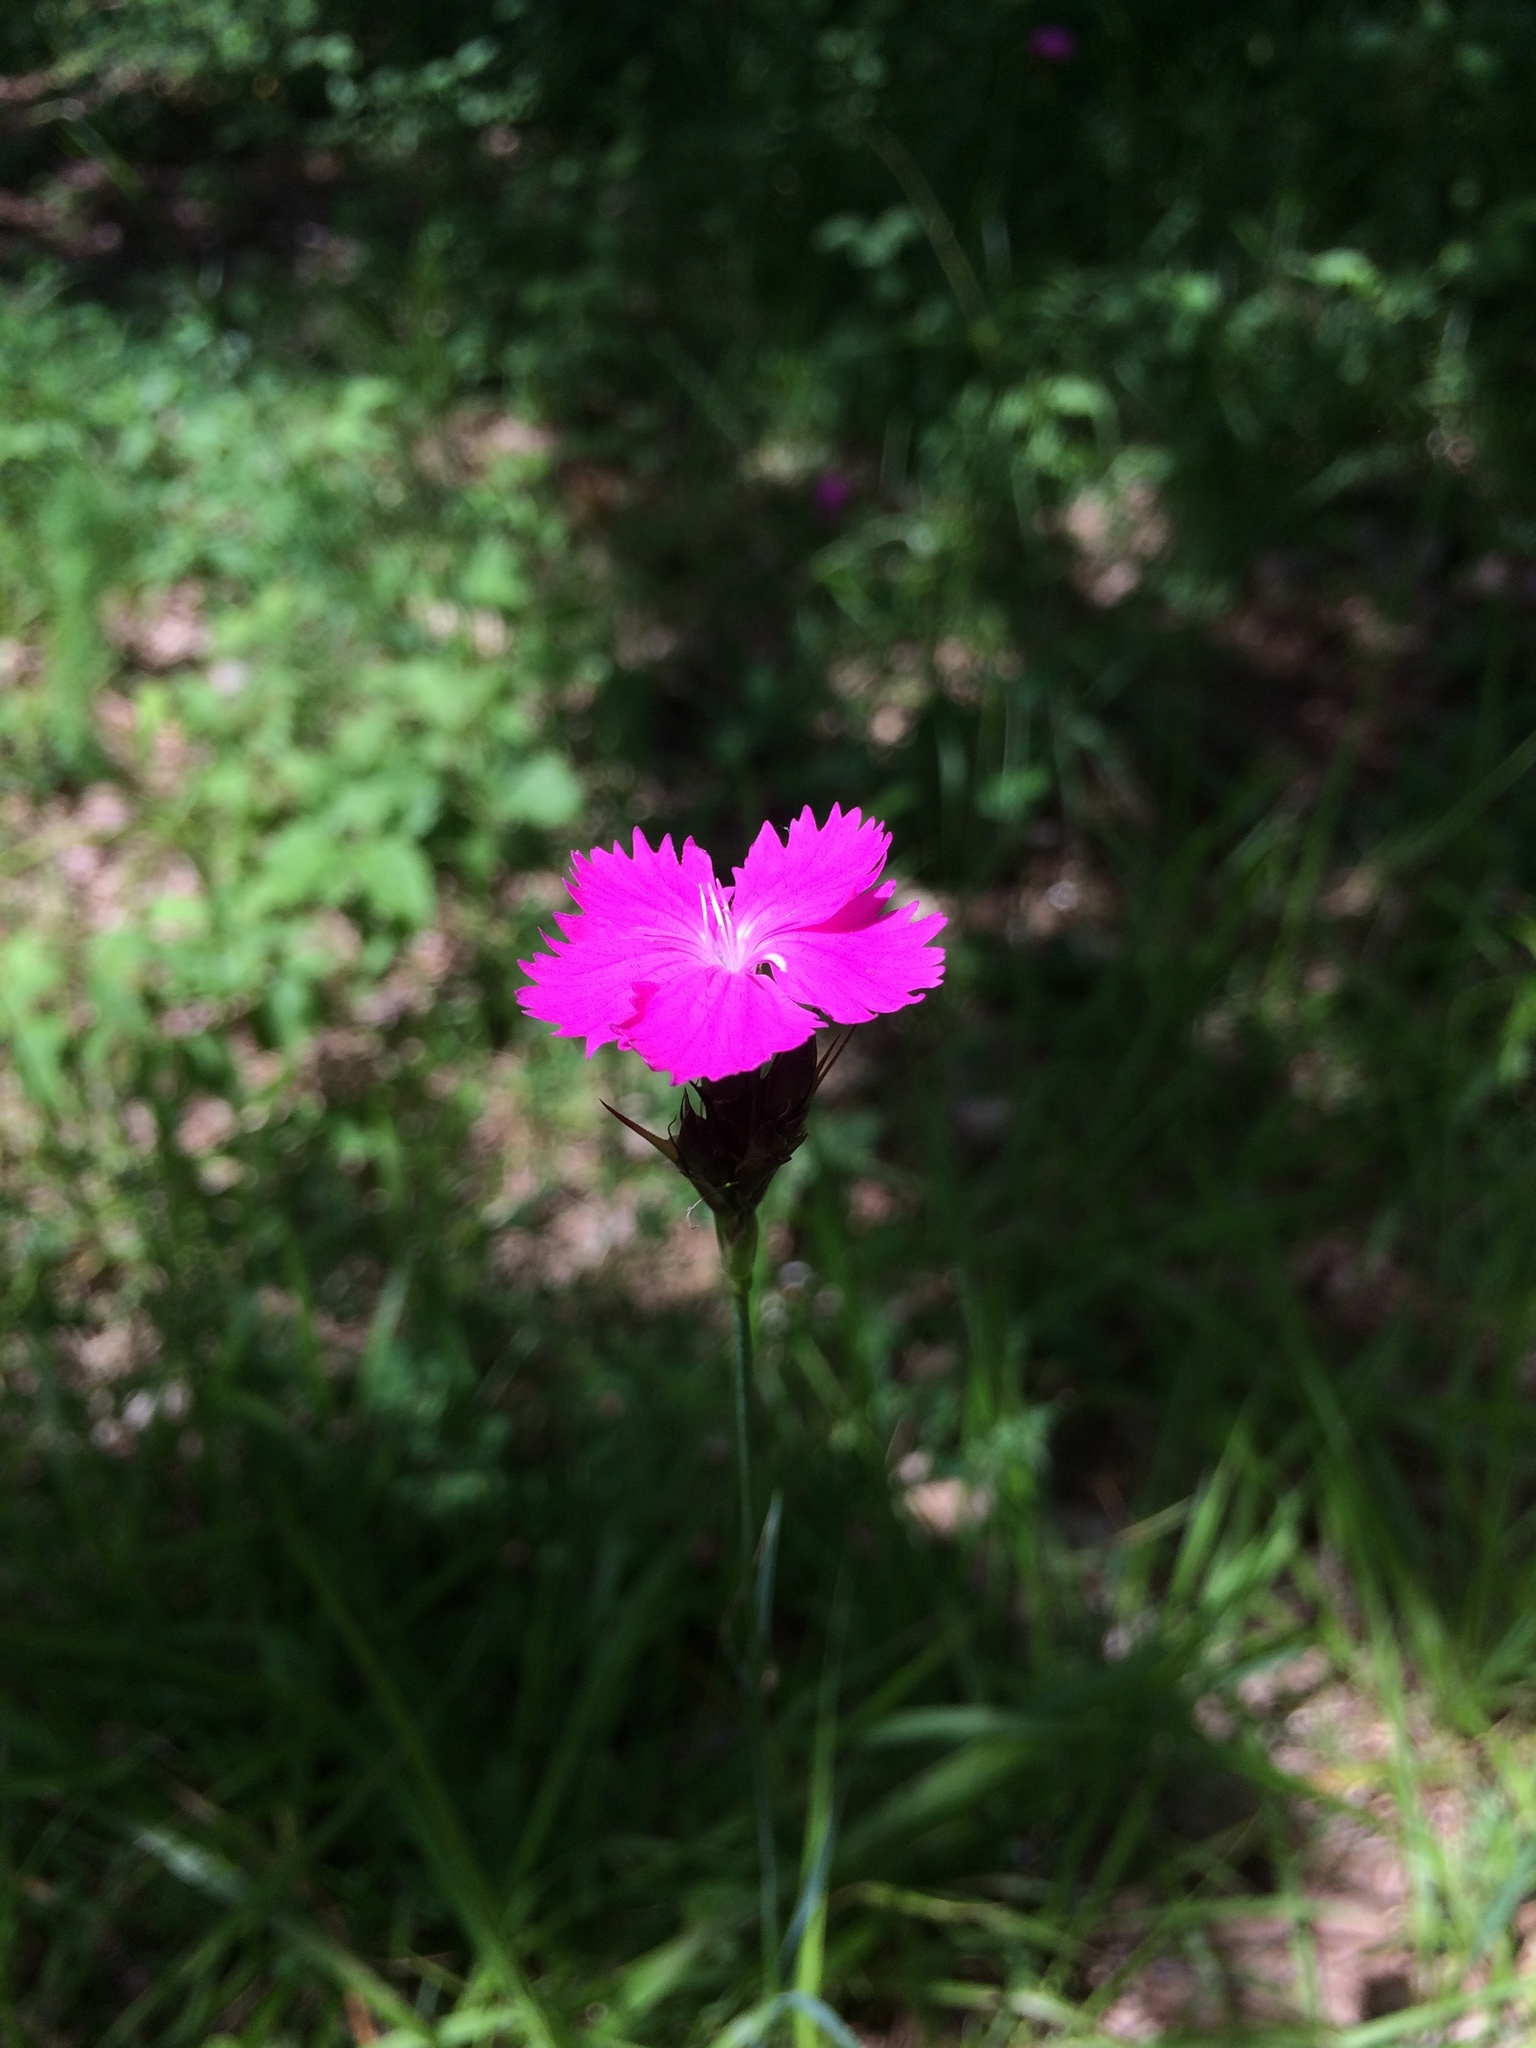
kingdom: Plantae
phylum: Tracheophyta
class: Magnoliopsida
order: Caryophyllales
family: Caryophyllaceae
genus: Dianthus
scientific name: Dianthus carthusianorum
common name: Carthusian pink
